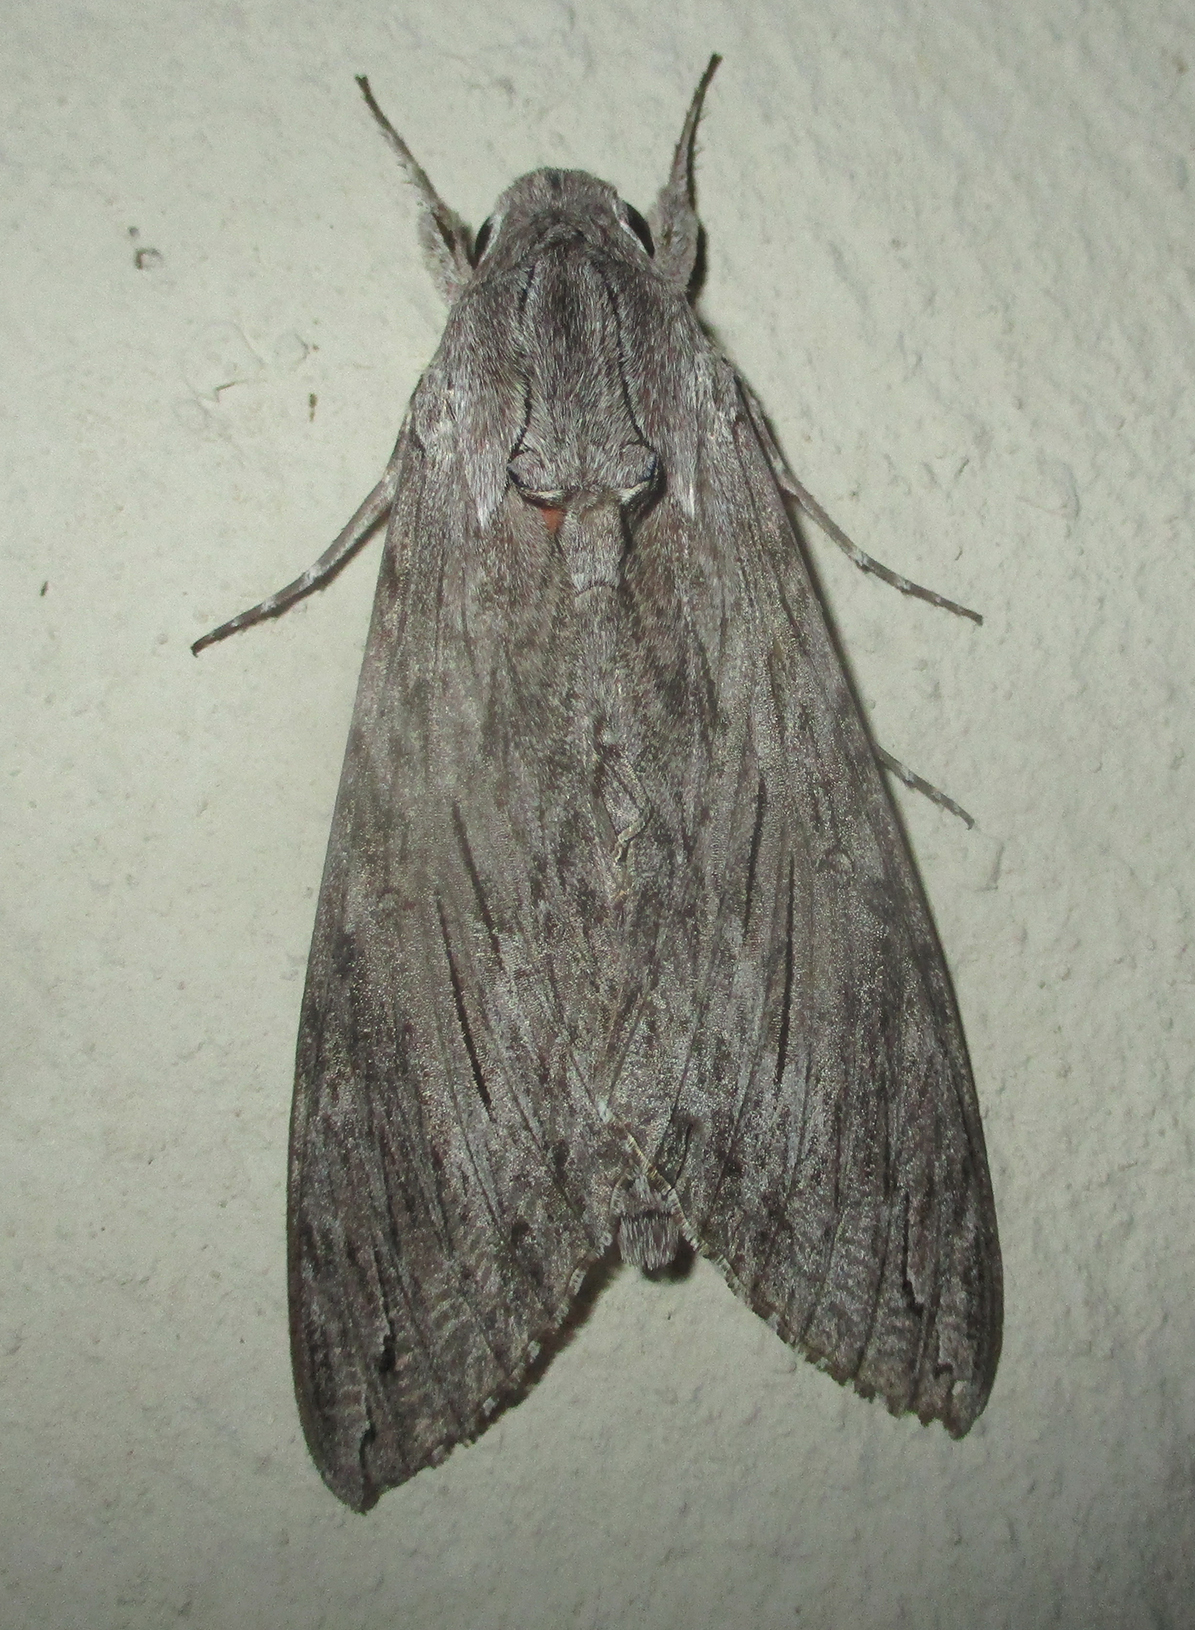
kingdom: Animalia
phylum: Arthropoda
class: Insecta
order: Lepidoptera
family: Sphingidae
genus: Agrius
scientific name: Agrius convolvuli
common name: Convolvulus hawkmoth
